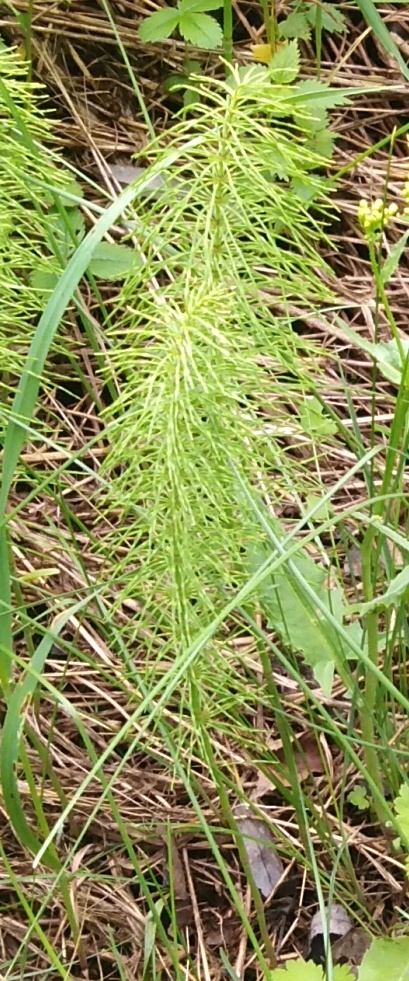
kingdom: Plantae
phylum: Tracheophyta
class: Polypodiopsida
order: Equisetales
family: Equisetaceae
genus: Equisetum
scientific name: Equisetum pratense
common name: Meadow horsetail
